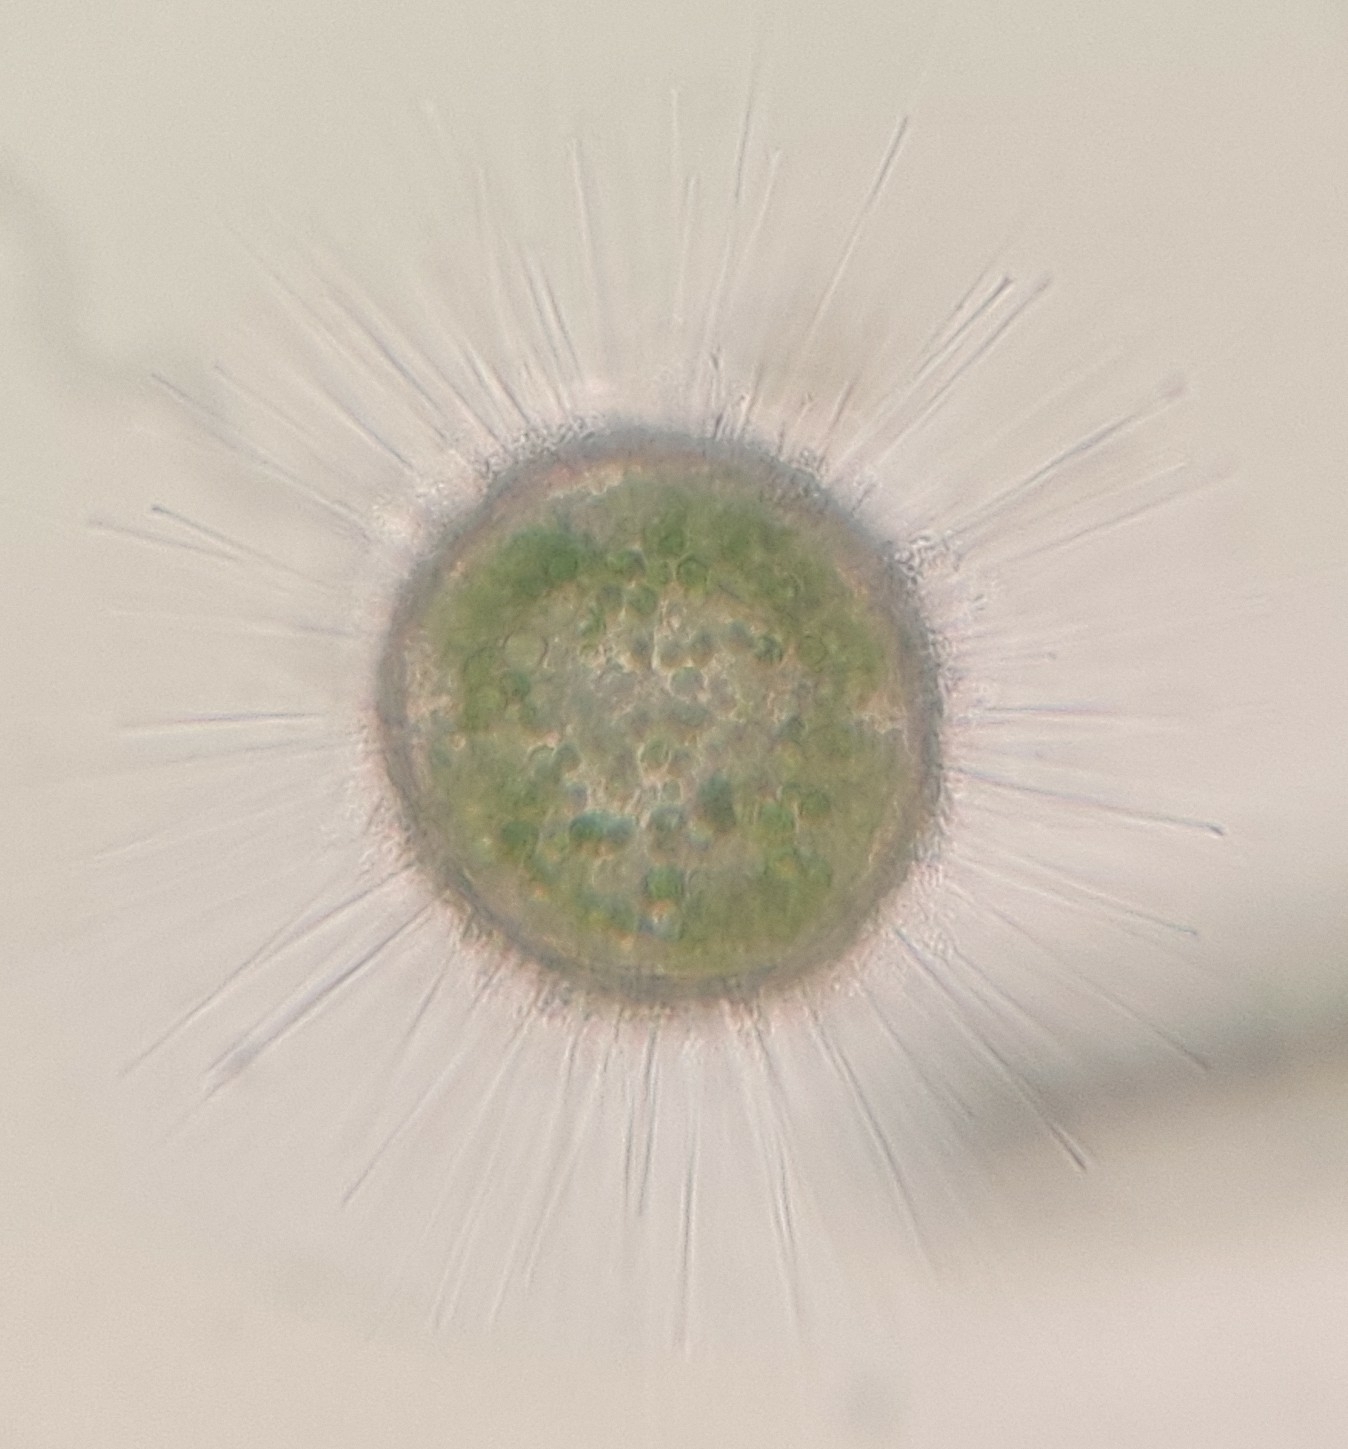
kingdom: Chromista
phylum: Heliozoa
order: Centrohelida
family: Acanthocystidae
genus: Acanthocystis
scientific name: Acanthocystis turfacea
